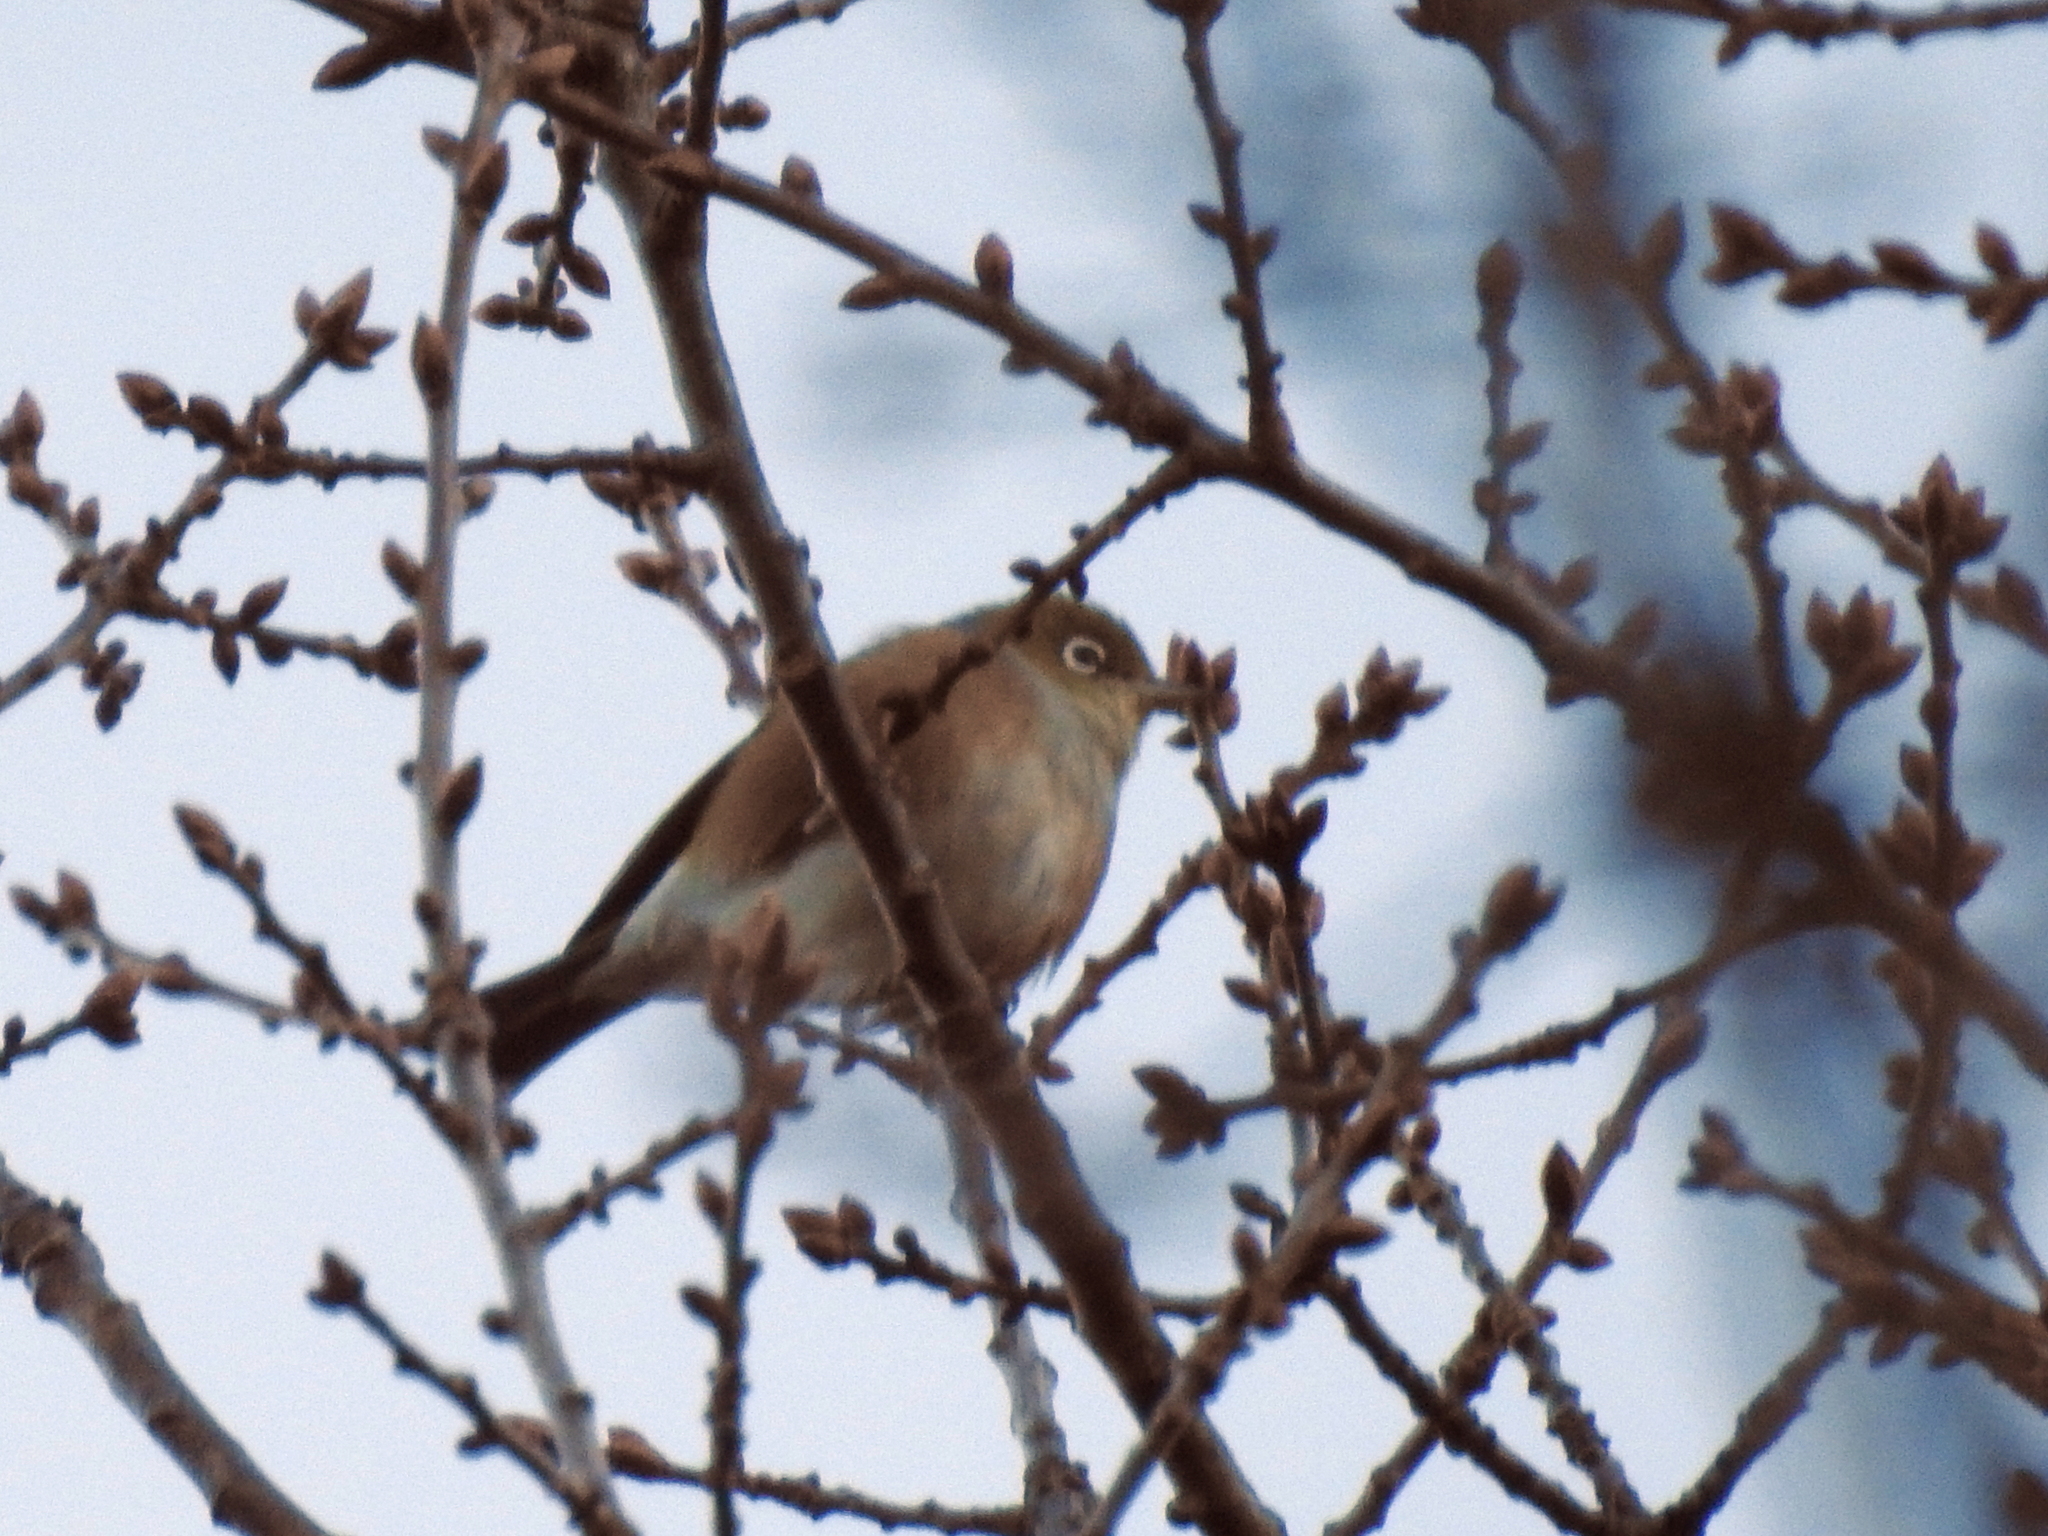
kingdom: Animalia
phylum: Chordata
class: Aves
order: Passeriformes
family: Zosteropidae
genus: Zosterops
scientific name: Zosterops lateralis
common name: Silvereye
